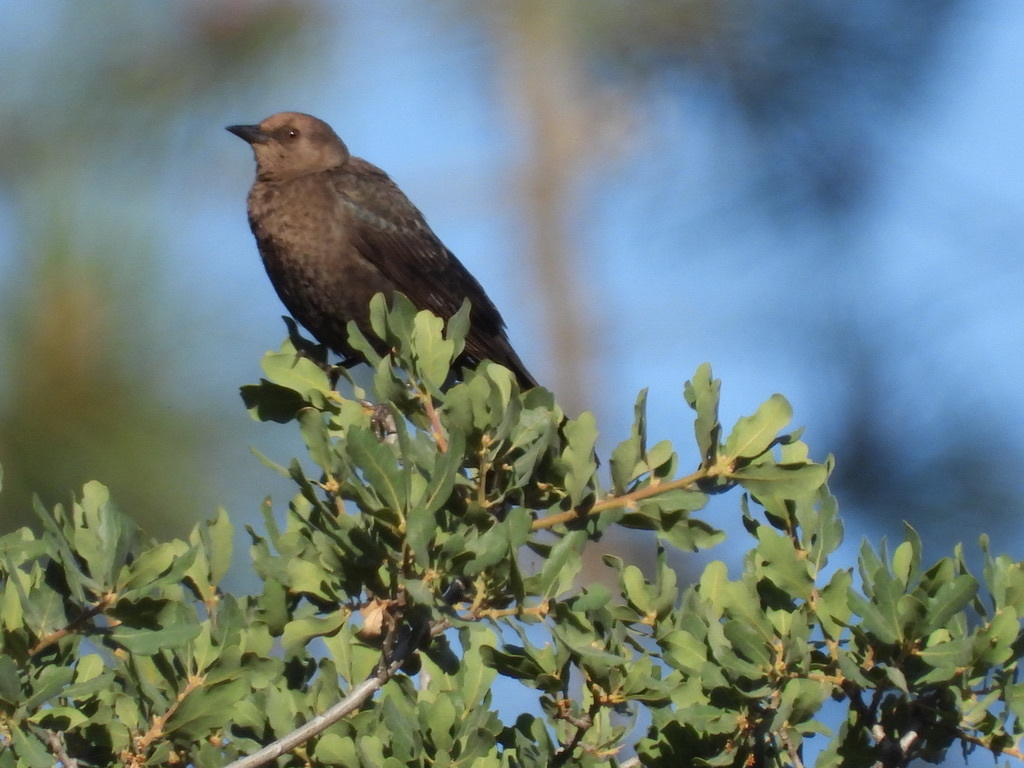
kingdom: Animalia
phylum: Chordata
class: Aves
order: Passeriformes
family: Icteridae
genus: Euphagus
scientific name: Euphagus cyanocephalus
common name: Brewer's blackbird
